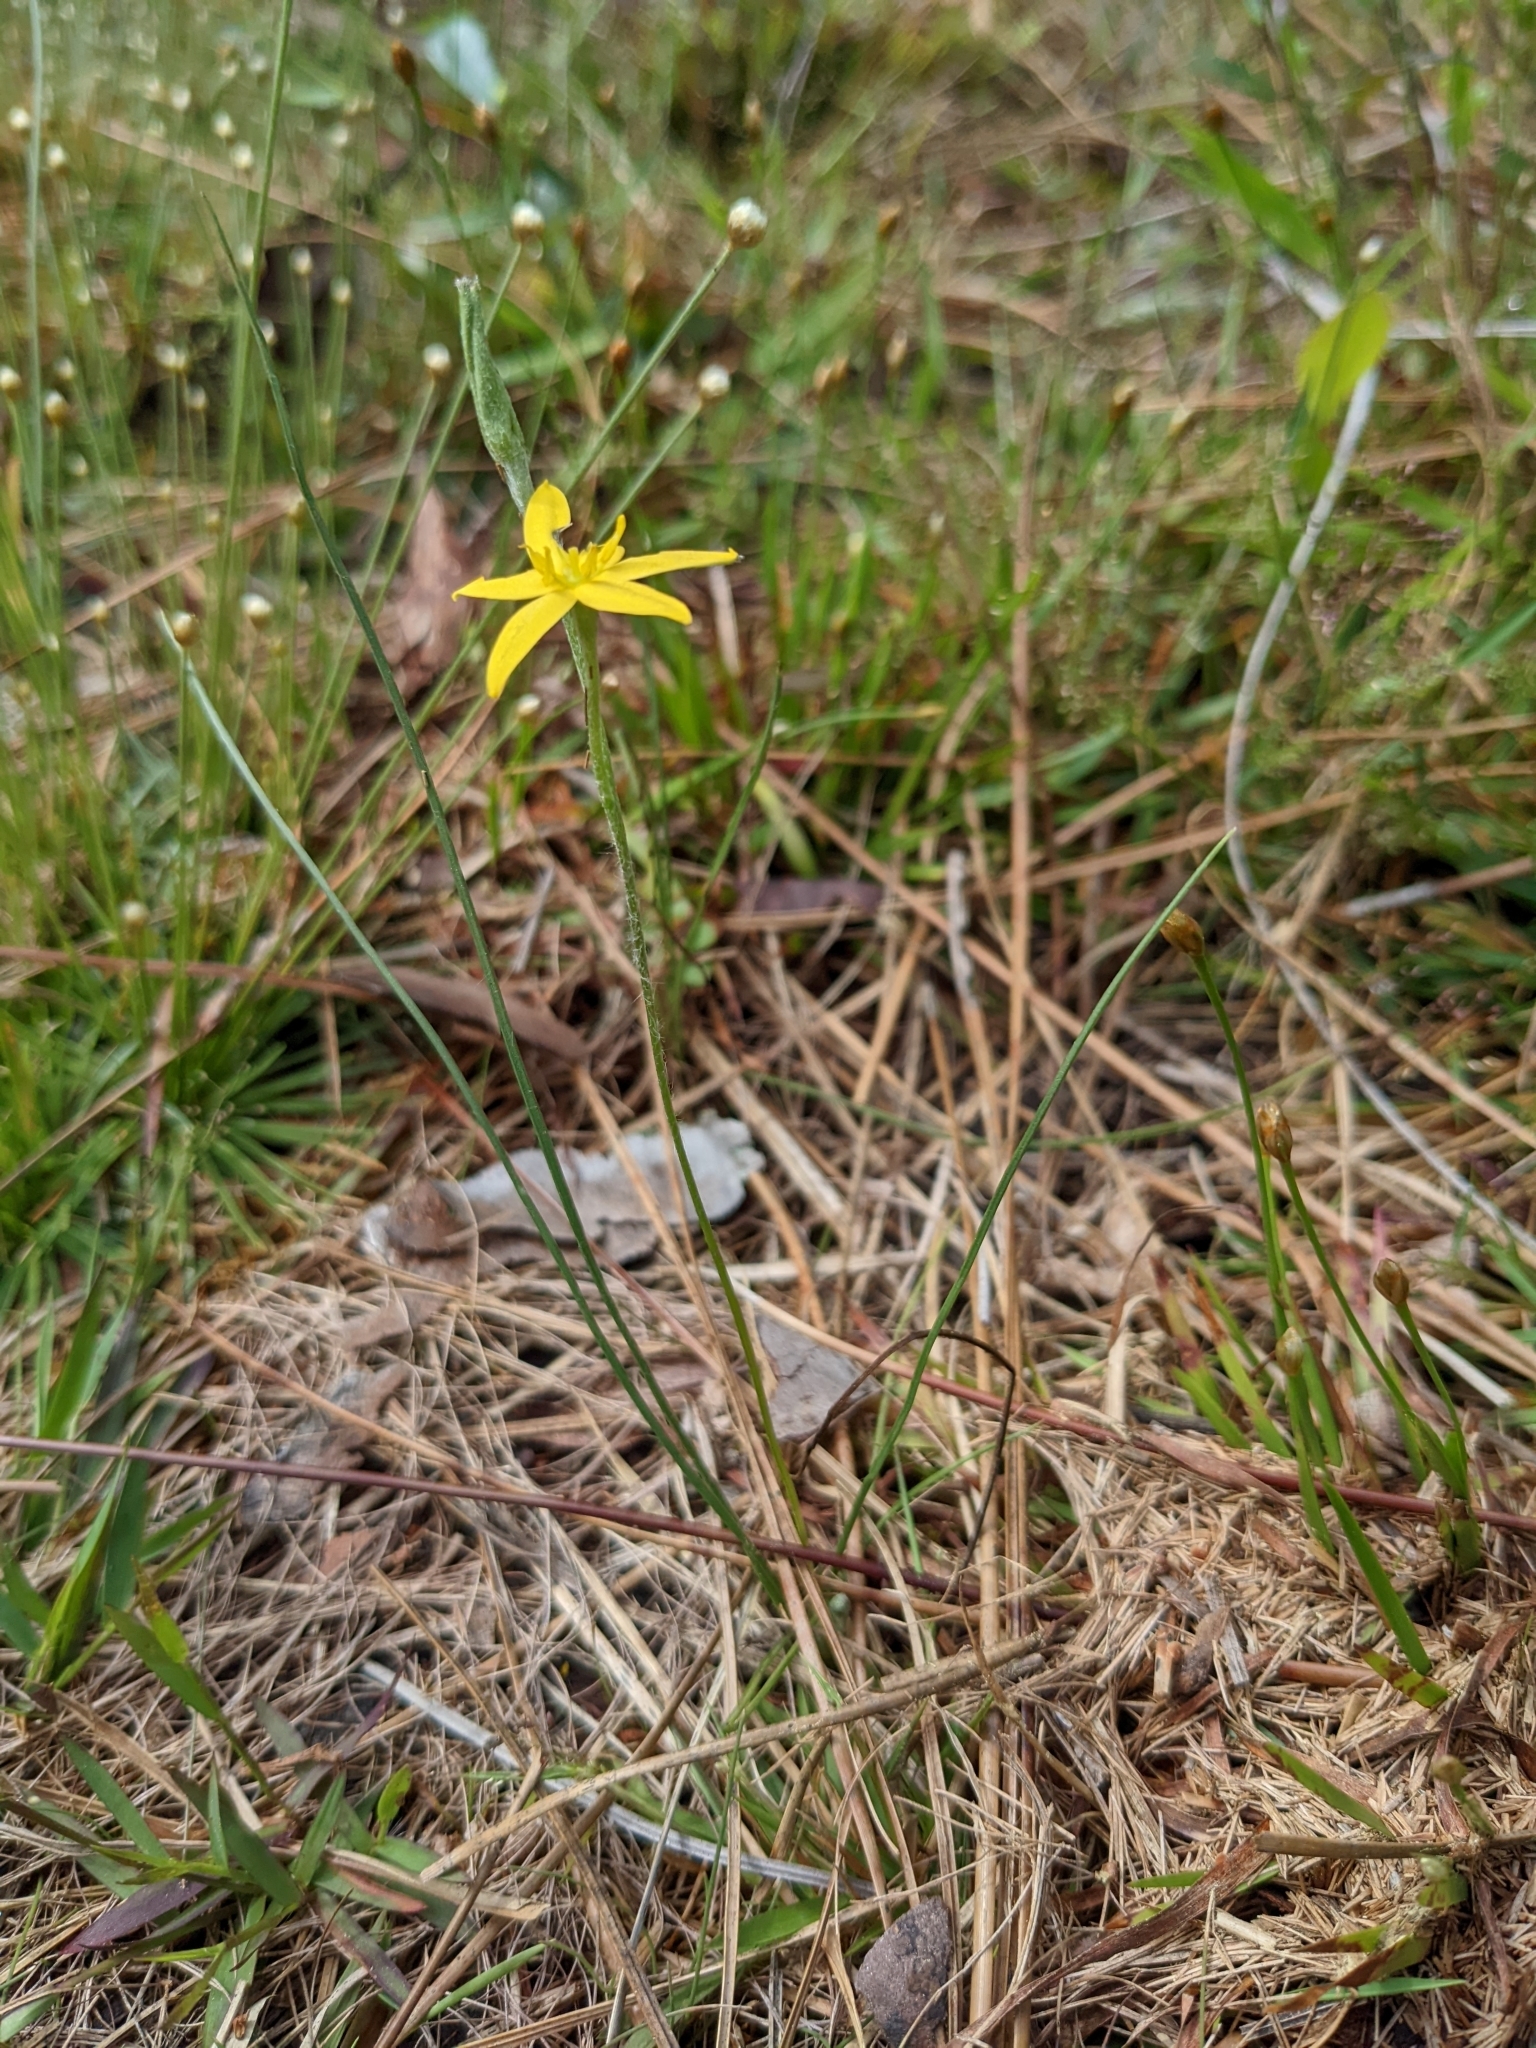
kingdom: Plantae
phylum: Tracheophyta
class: Liliopsida
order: Asparagales
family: Hypoxidaceae
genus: Hypoxis
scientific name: Hypoxis juncea
